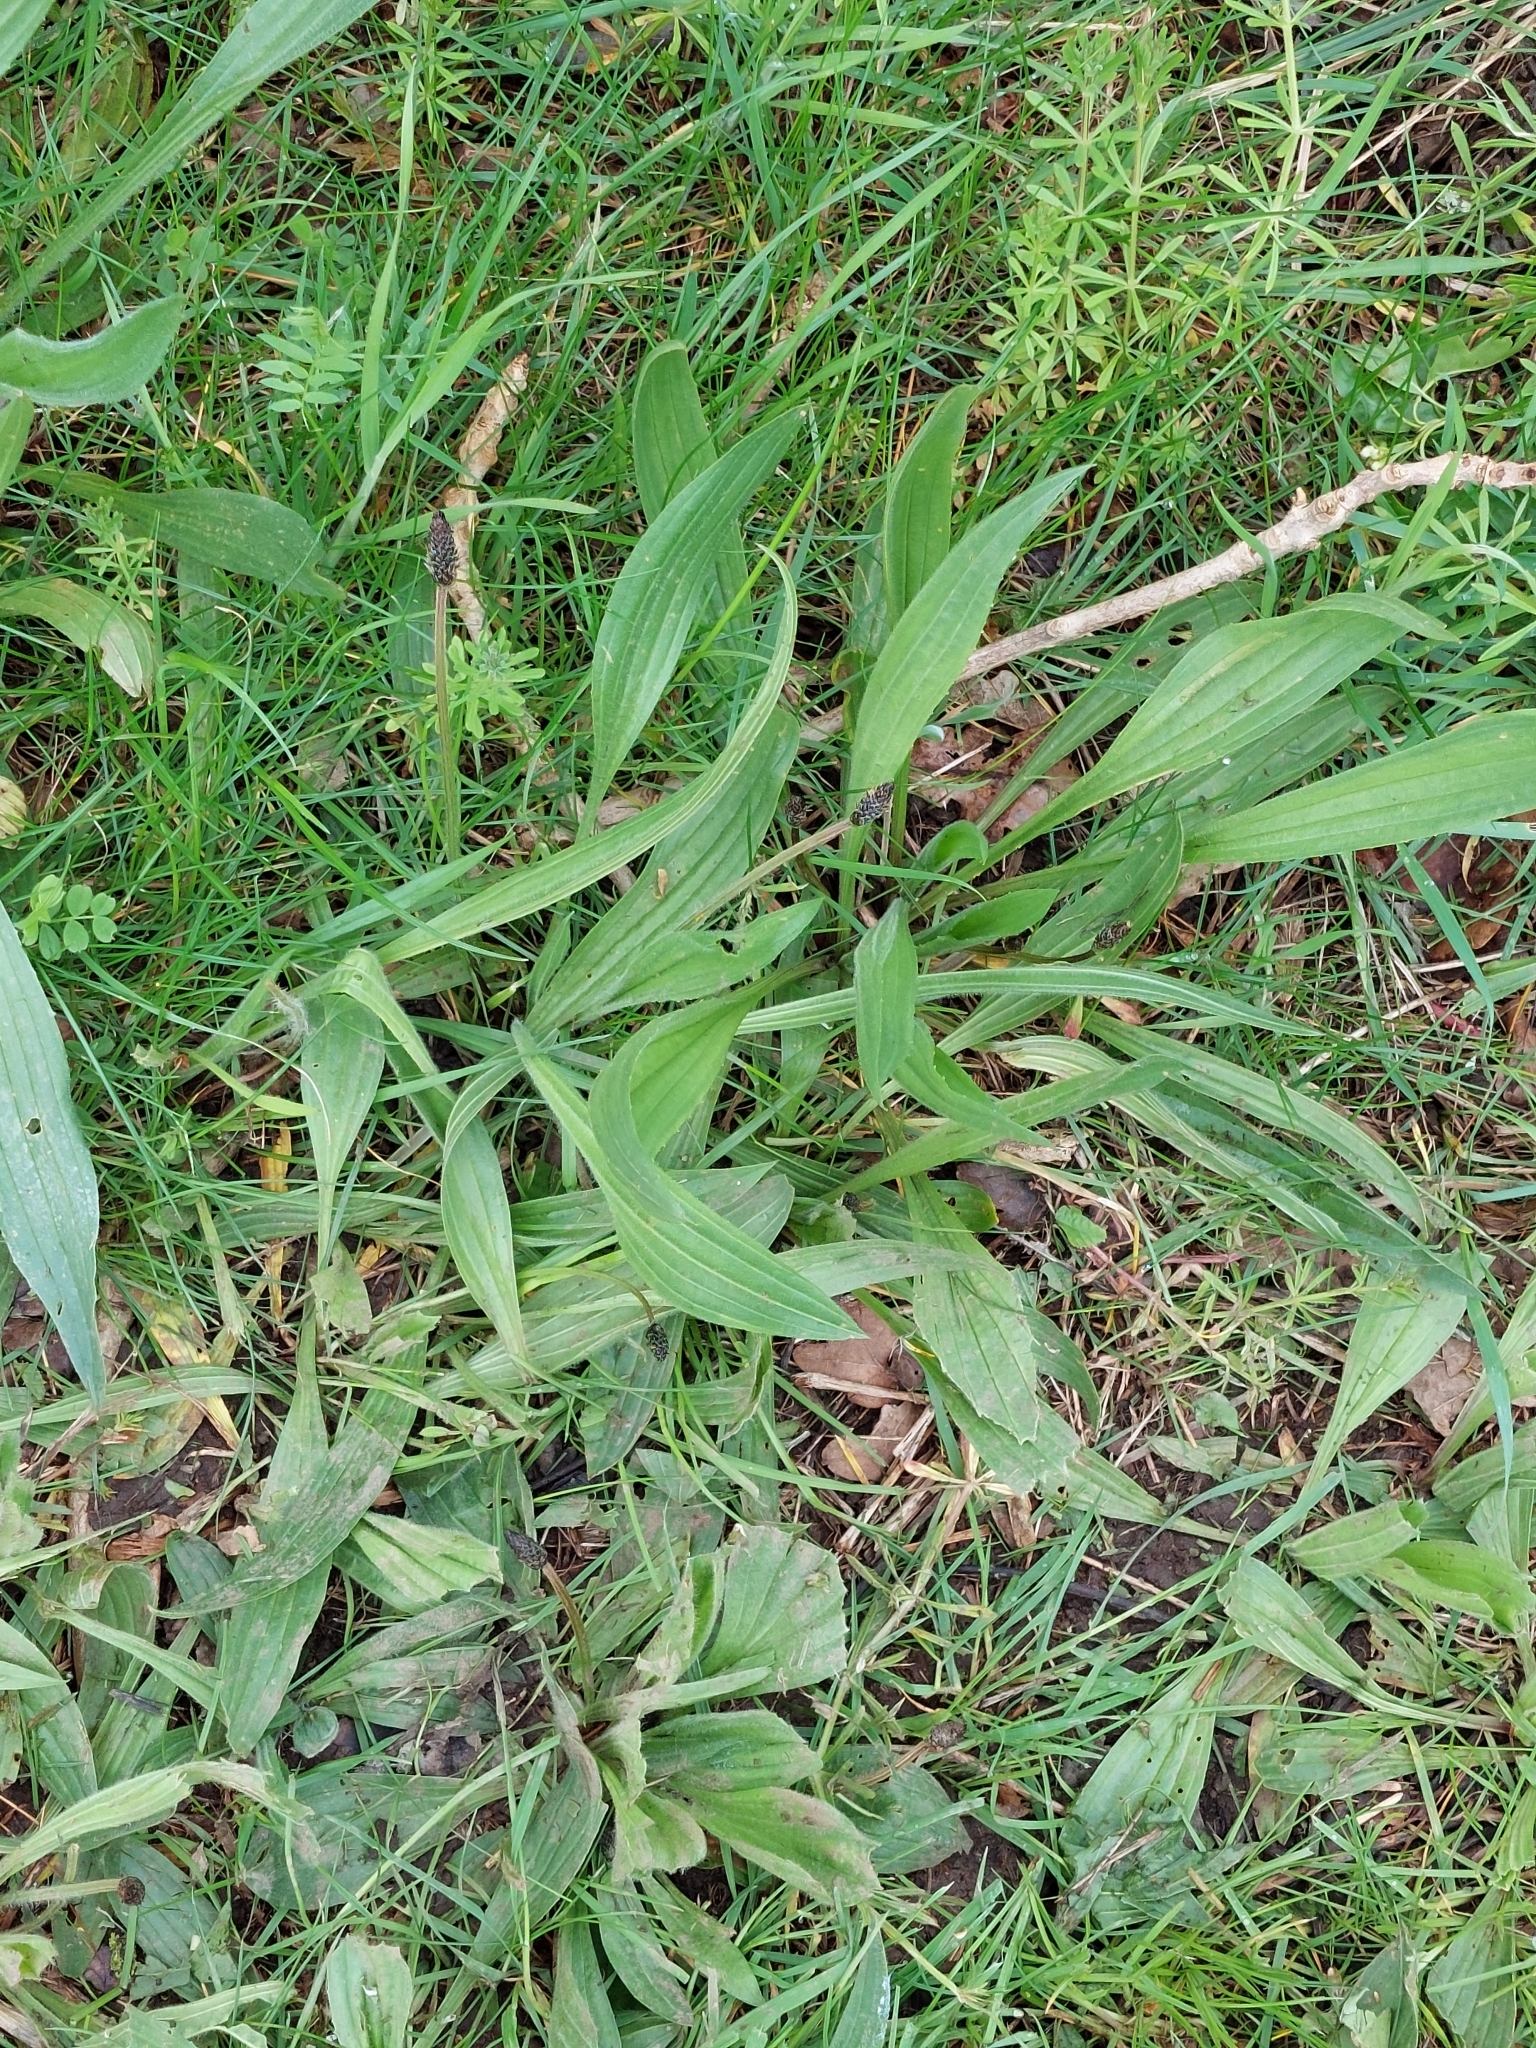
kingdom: Plantae
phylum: Tracheophyta
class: Magnoliopsida
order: Lamiales
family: Plantaginaceae
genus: Plantago
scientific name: Plantago lanceolata
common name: Ribwort plantain
